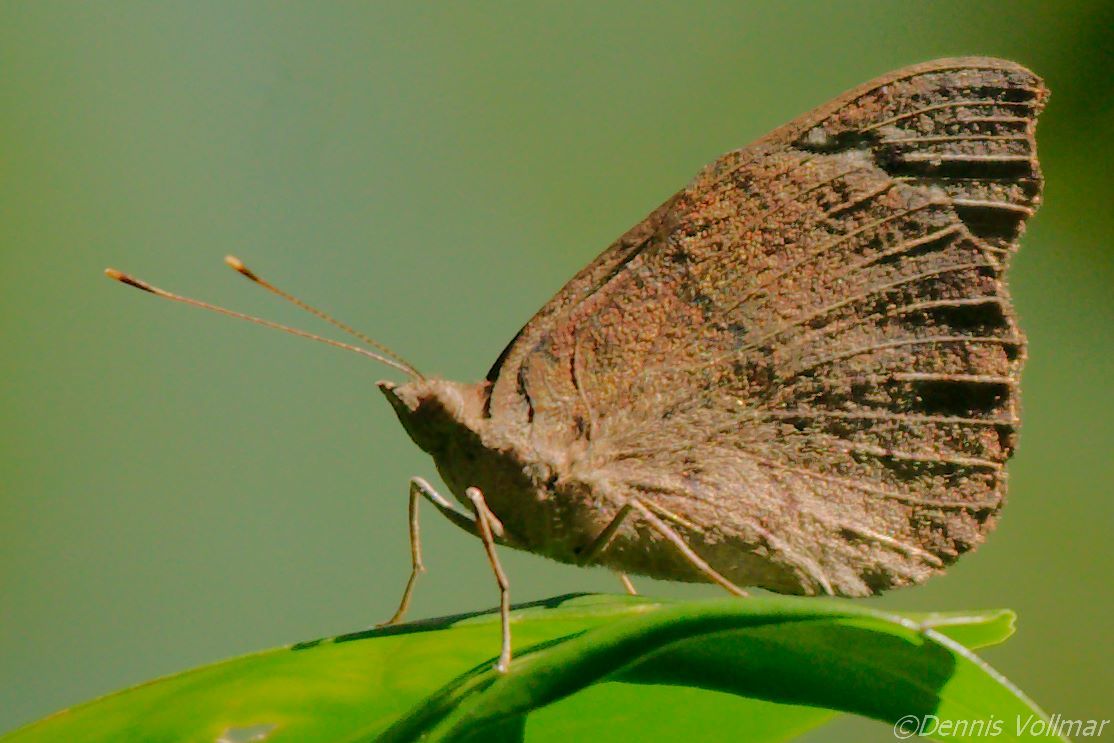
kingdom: Animalia
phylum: Arthropoda
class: Insecta
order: Lepidoptera
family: Nymphalidae
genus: Eunica
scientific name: Eunica tatila
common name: Florida purplewing
